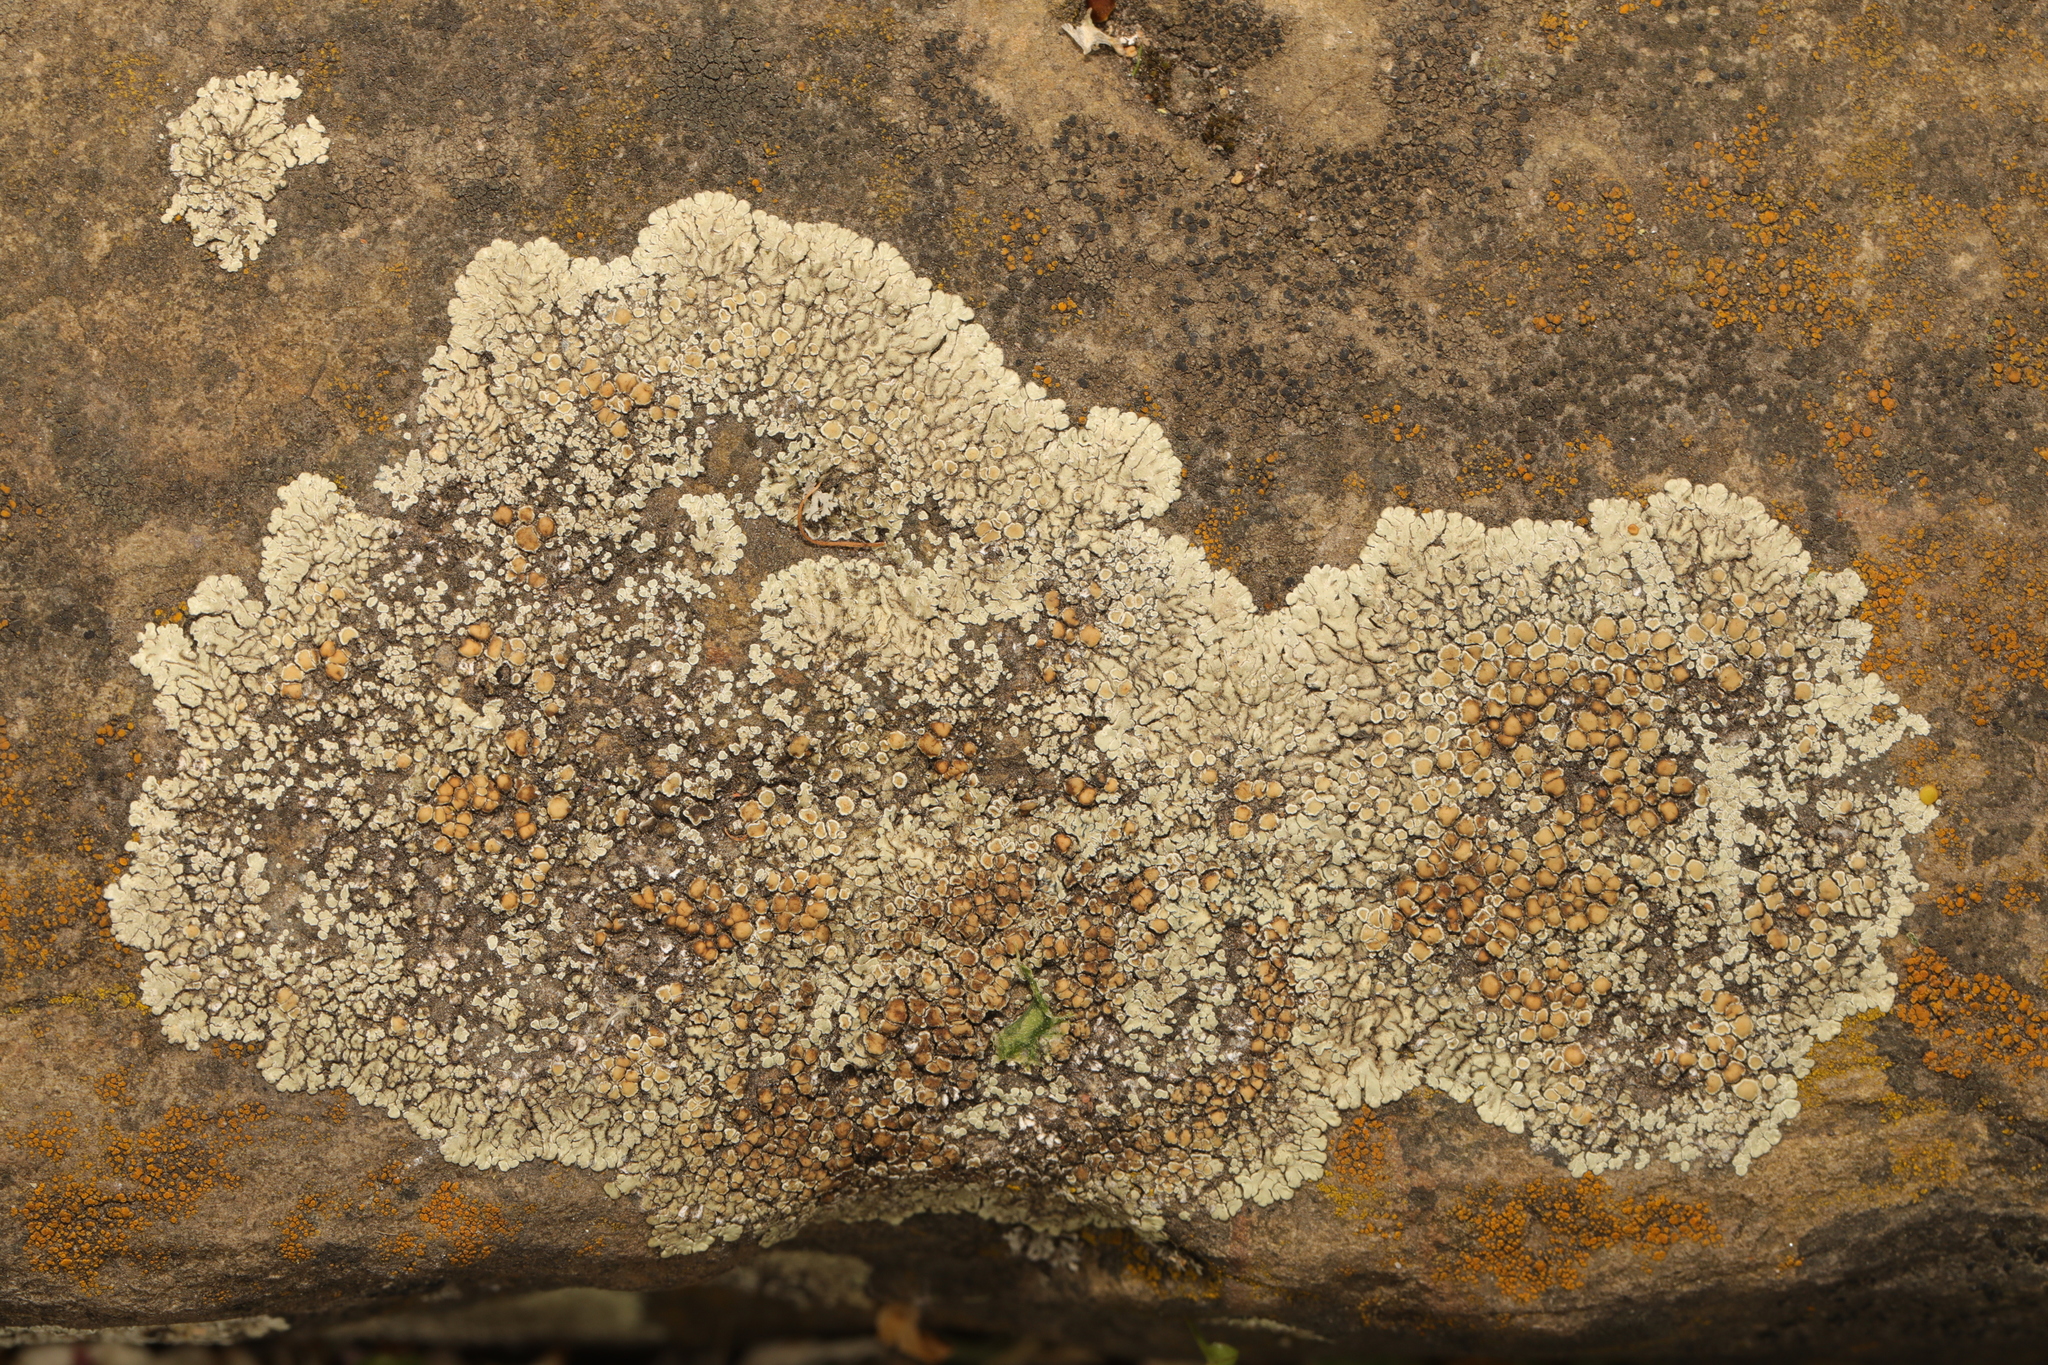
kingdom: Fungi
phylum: Ascomycota
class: Lecanoromycetes
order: Lecanorales
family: Lecanoraceae
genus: Protoparmeliopsis
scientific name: Protoparmeliopsis muralis
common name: Stonewall rim lichen
